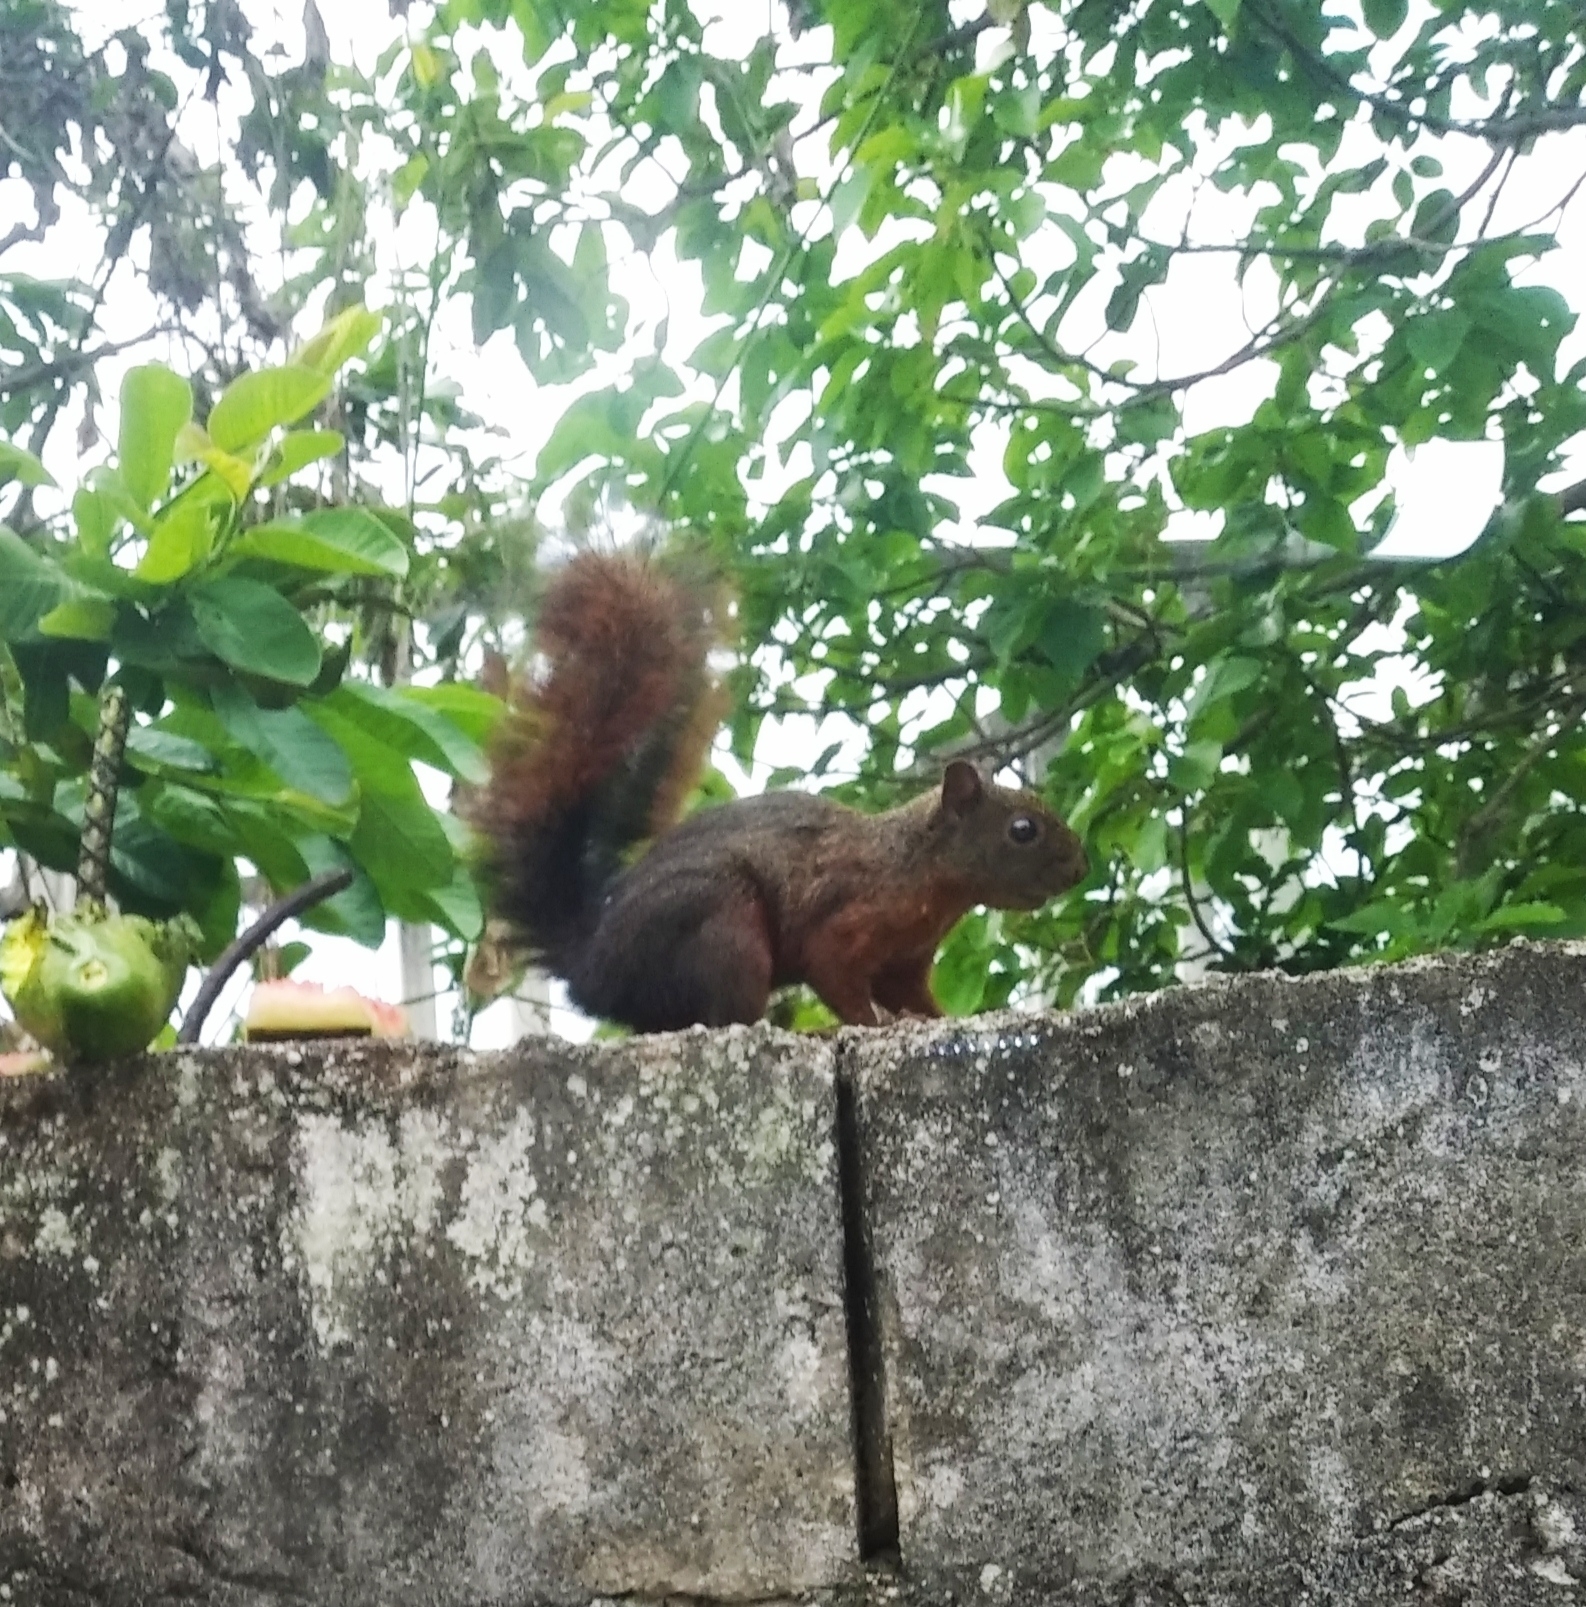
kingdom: Animalia
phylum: Chordata
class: Mammalia
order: Rodentia
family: Sciuridae
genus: Sciurus
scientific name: Sciurus granatensis
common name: Red-tailed squirrel
